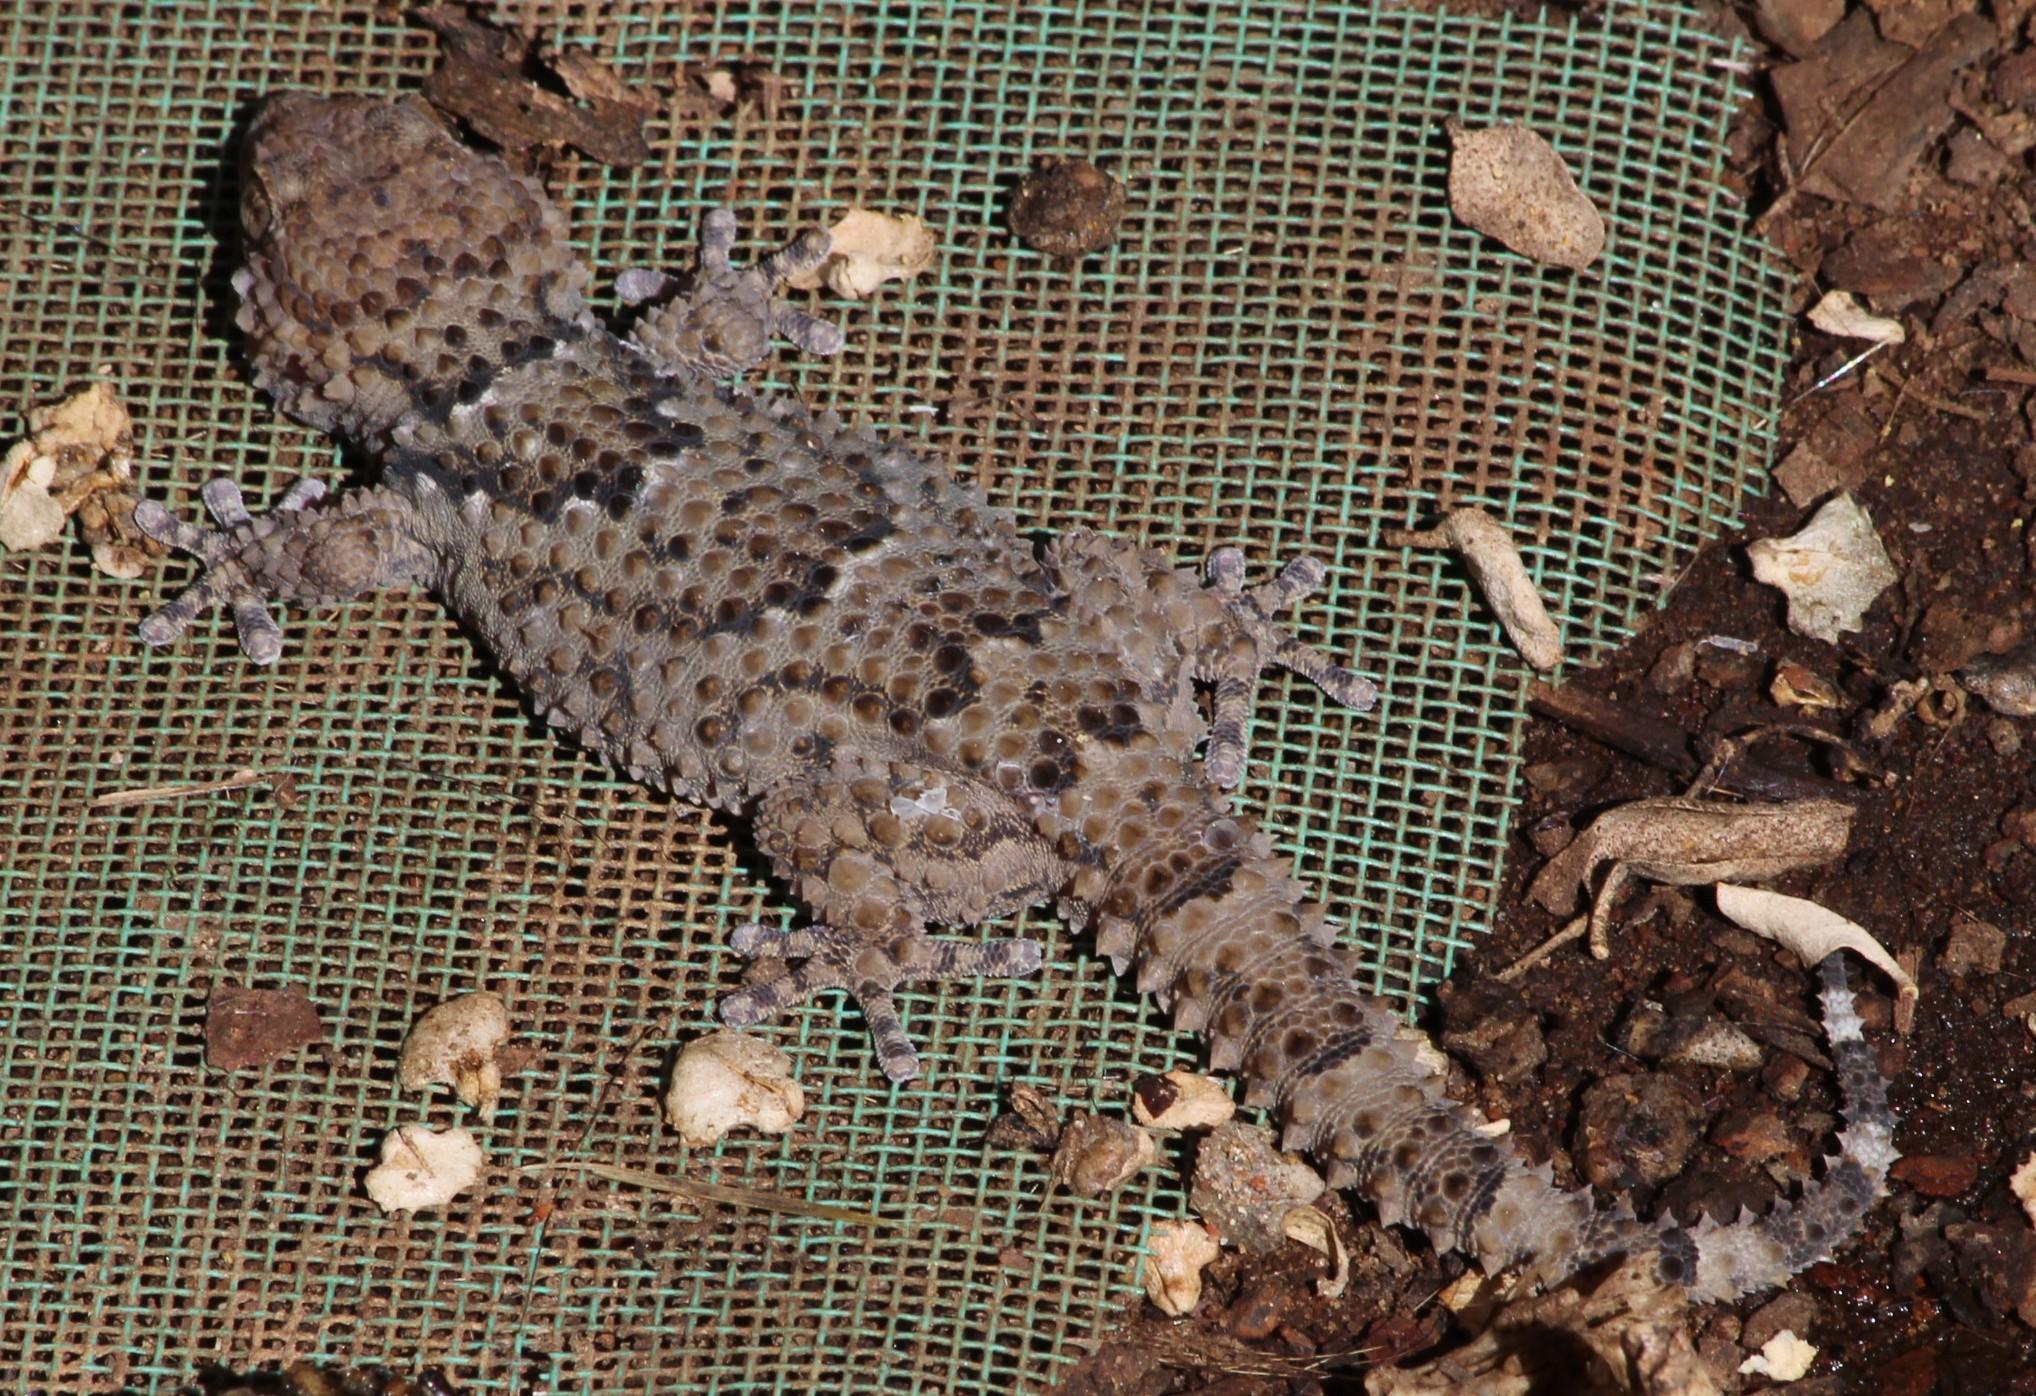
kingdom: Animalia
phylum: Chordata
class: Squamata
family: Gekkonidae
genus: Chondrodactylus
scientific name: Chondrodactylus bibronii
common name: Bibron's gecko
